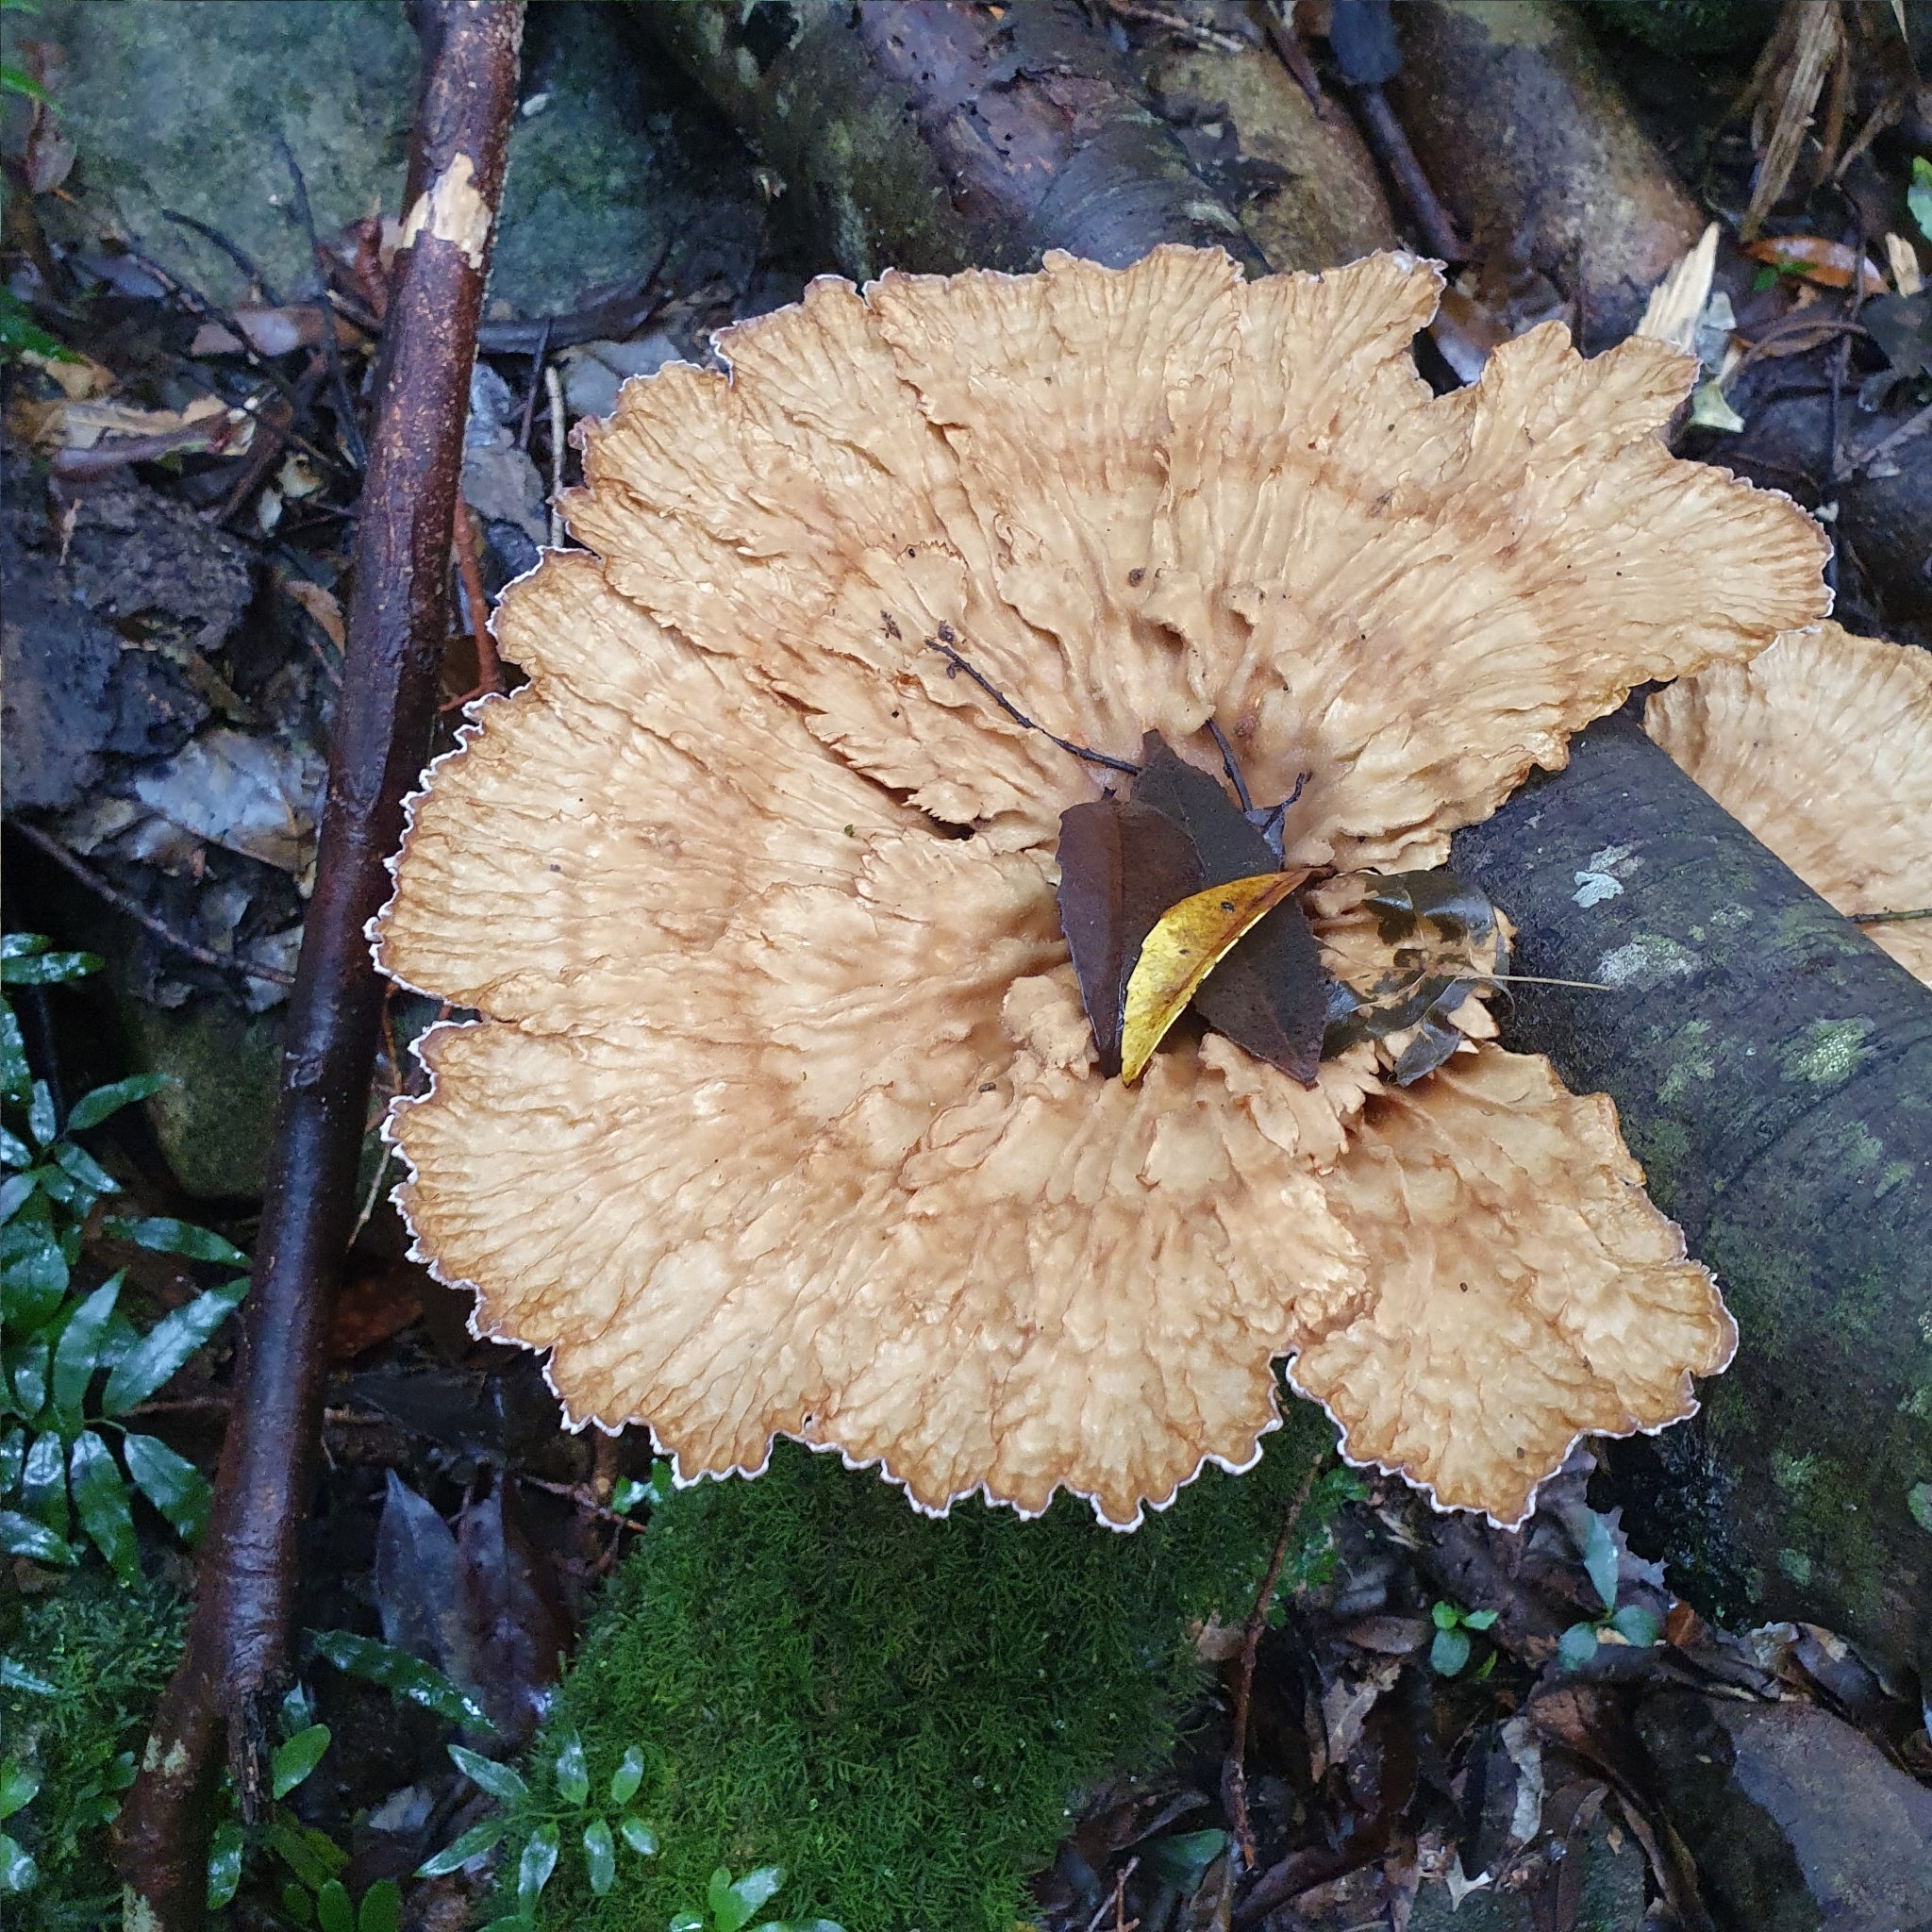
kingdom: Fungi
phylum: Basidiomycota
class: Agaricomycetes
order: Polyporales
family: Panaceae
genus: Cymatoderma
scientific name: Cymatoderma elegans
